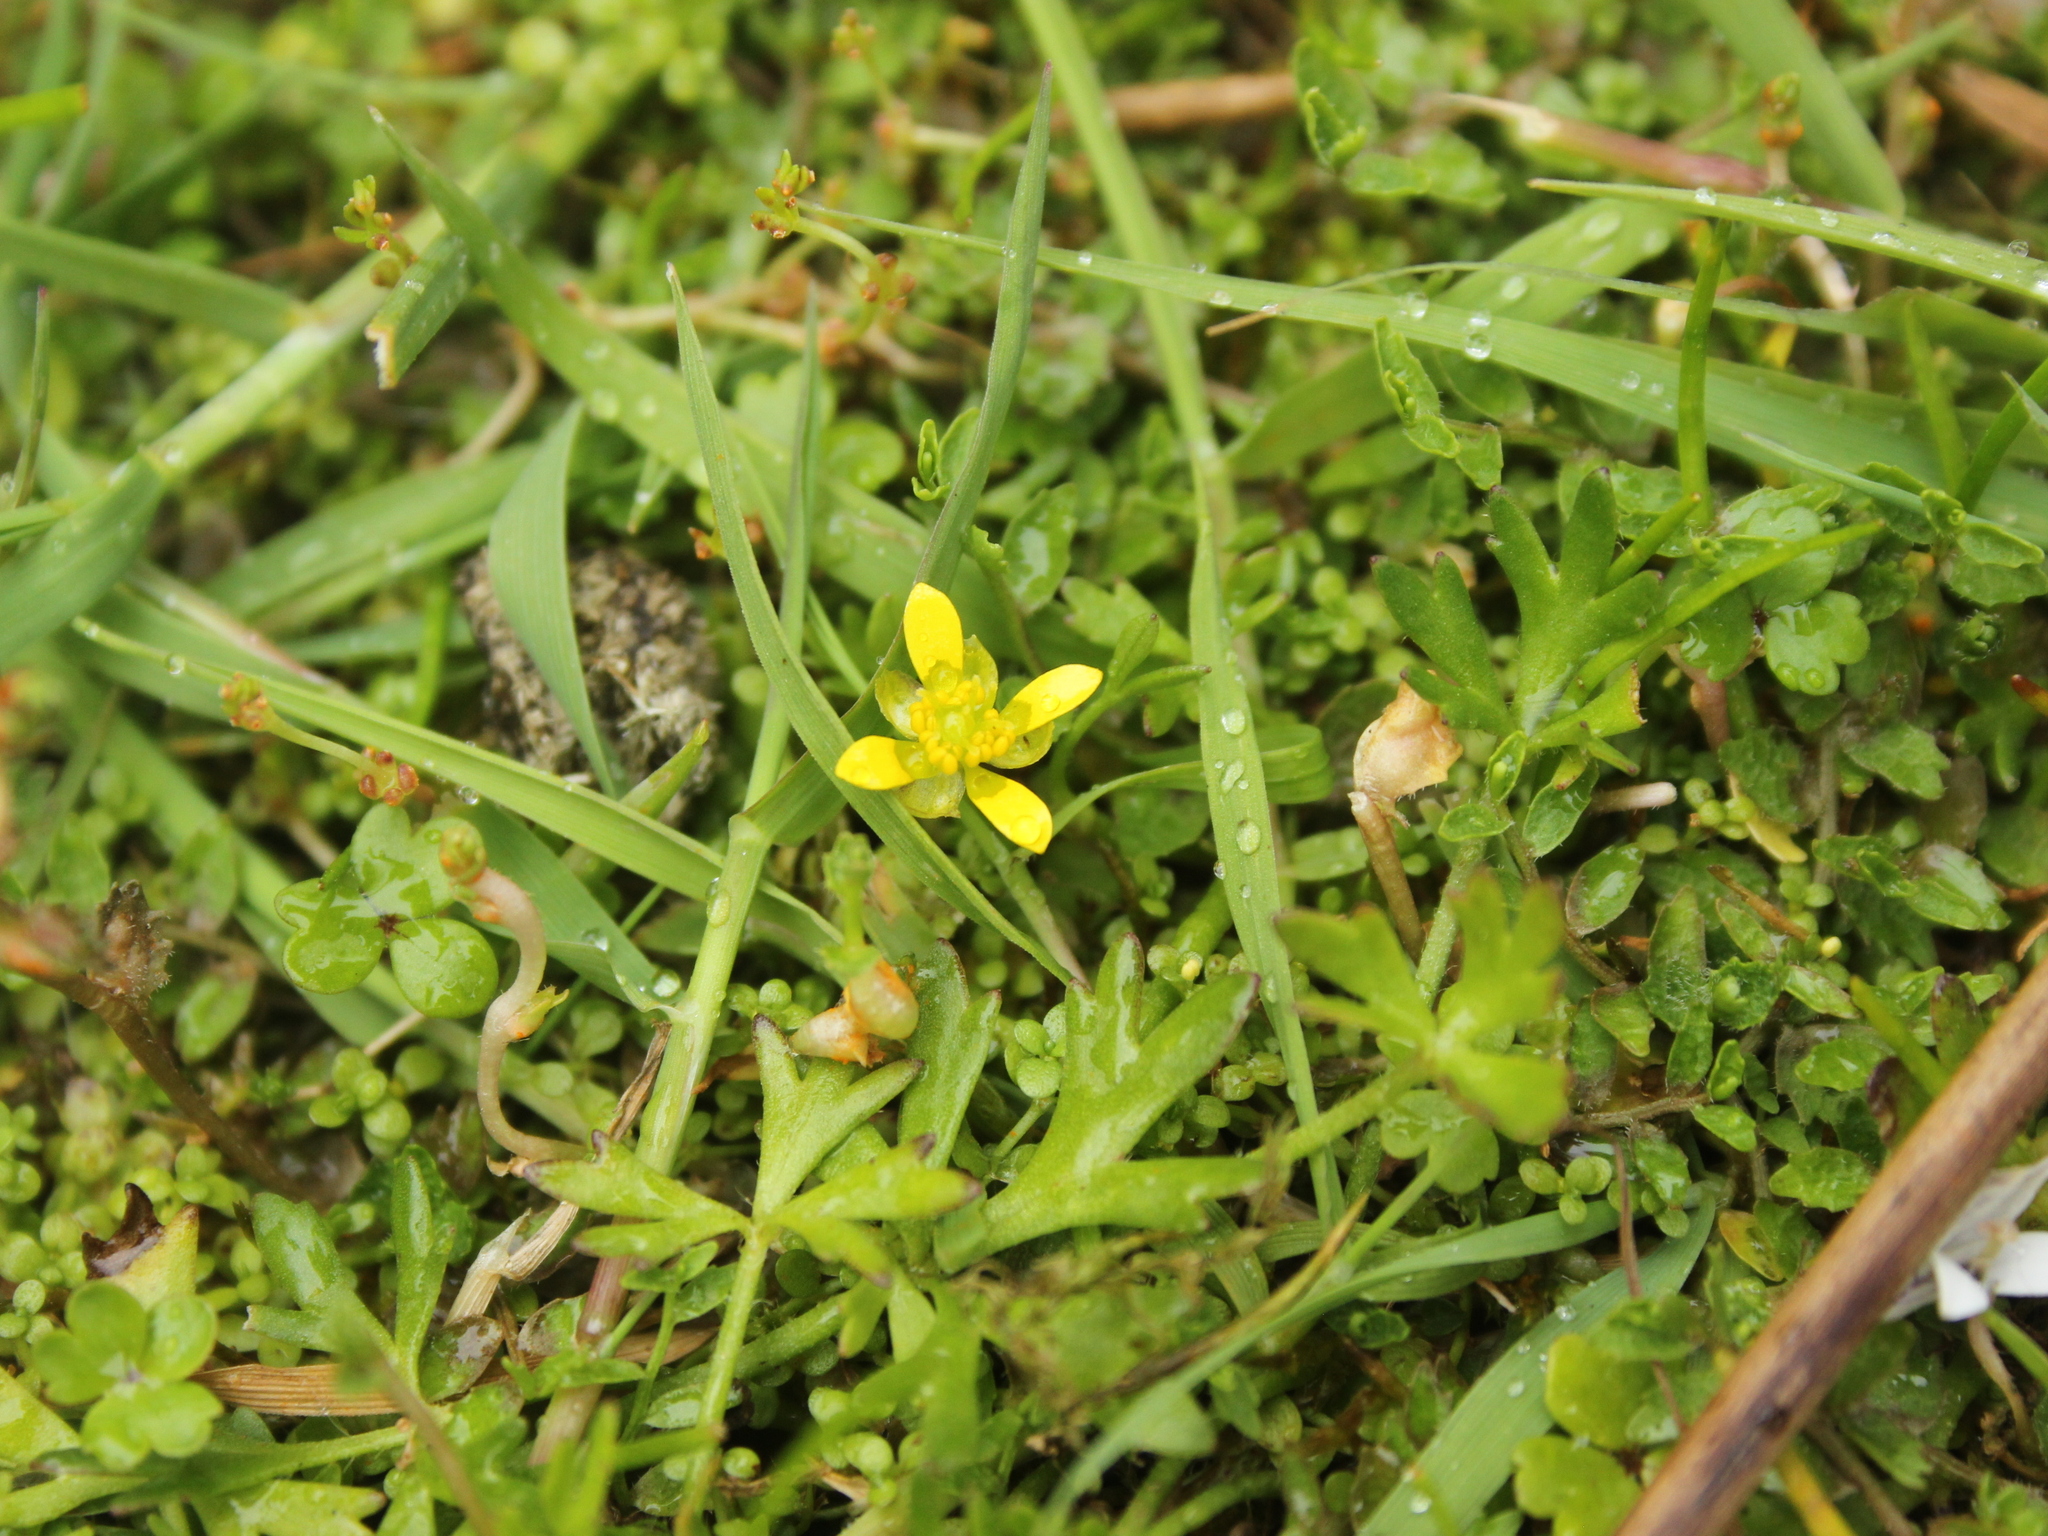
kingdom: Plantae
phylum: Tracheophyta
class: Magnoliopsida
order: Ranunculales
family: Ranunculaceae
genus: Ranunculus
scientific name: Ranunculus glabrifolius
